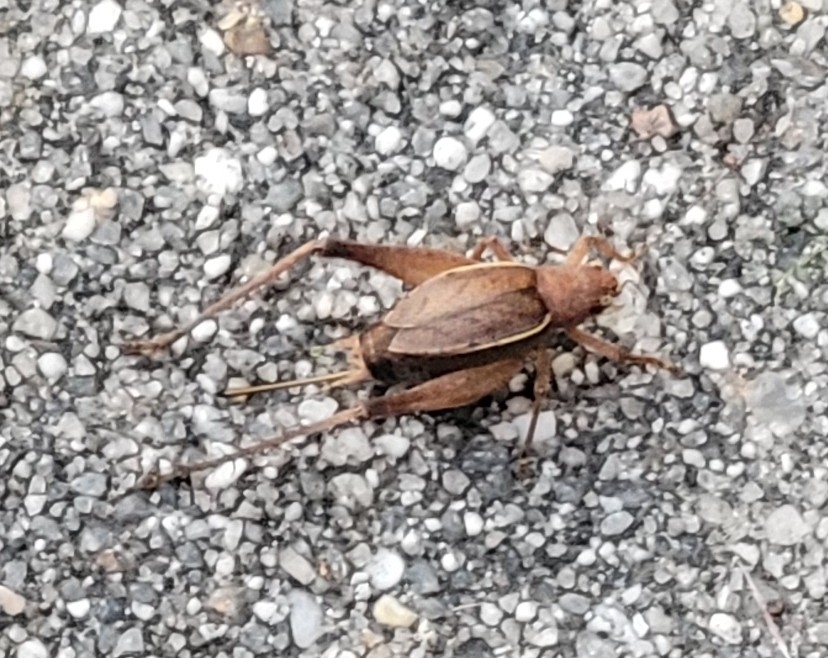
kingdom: Animalia
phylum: Arthropoda
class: Insecta
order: Orthoptera
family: Gryllidae
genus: Hapithus
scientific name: Hapithus agitator
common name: Restless bush cricket
